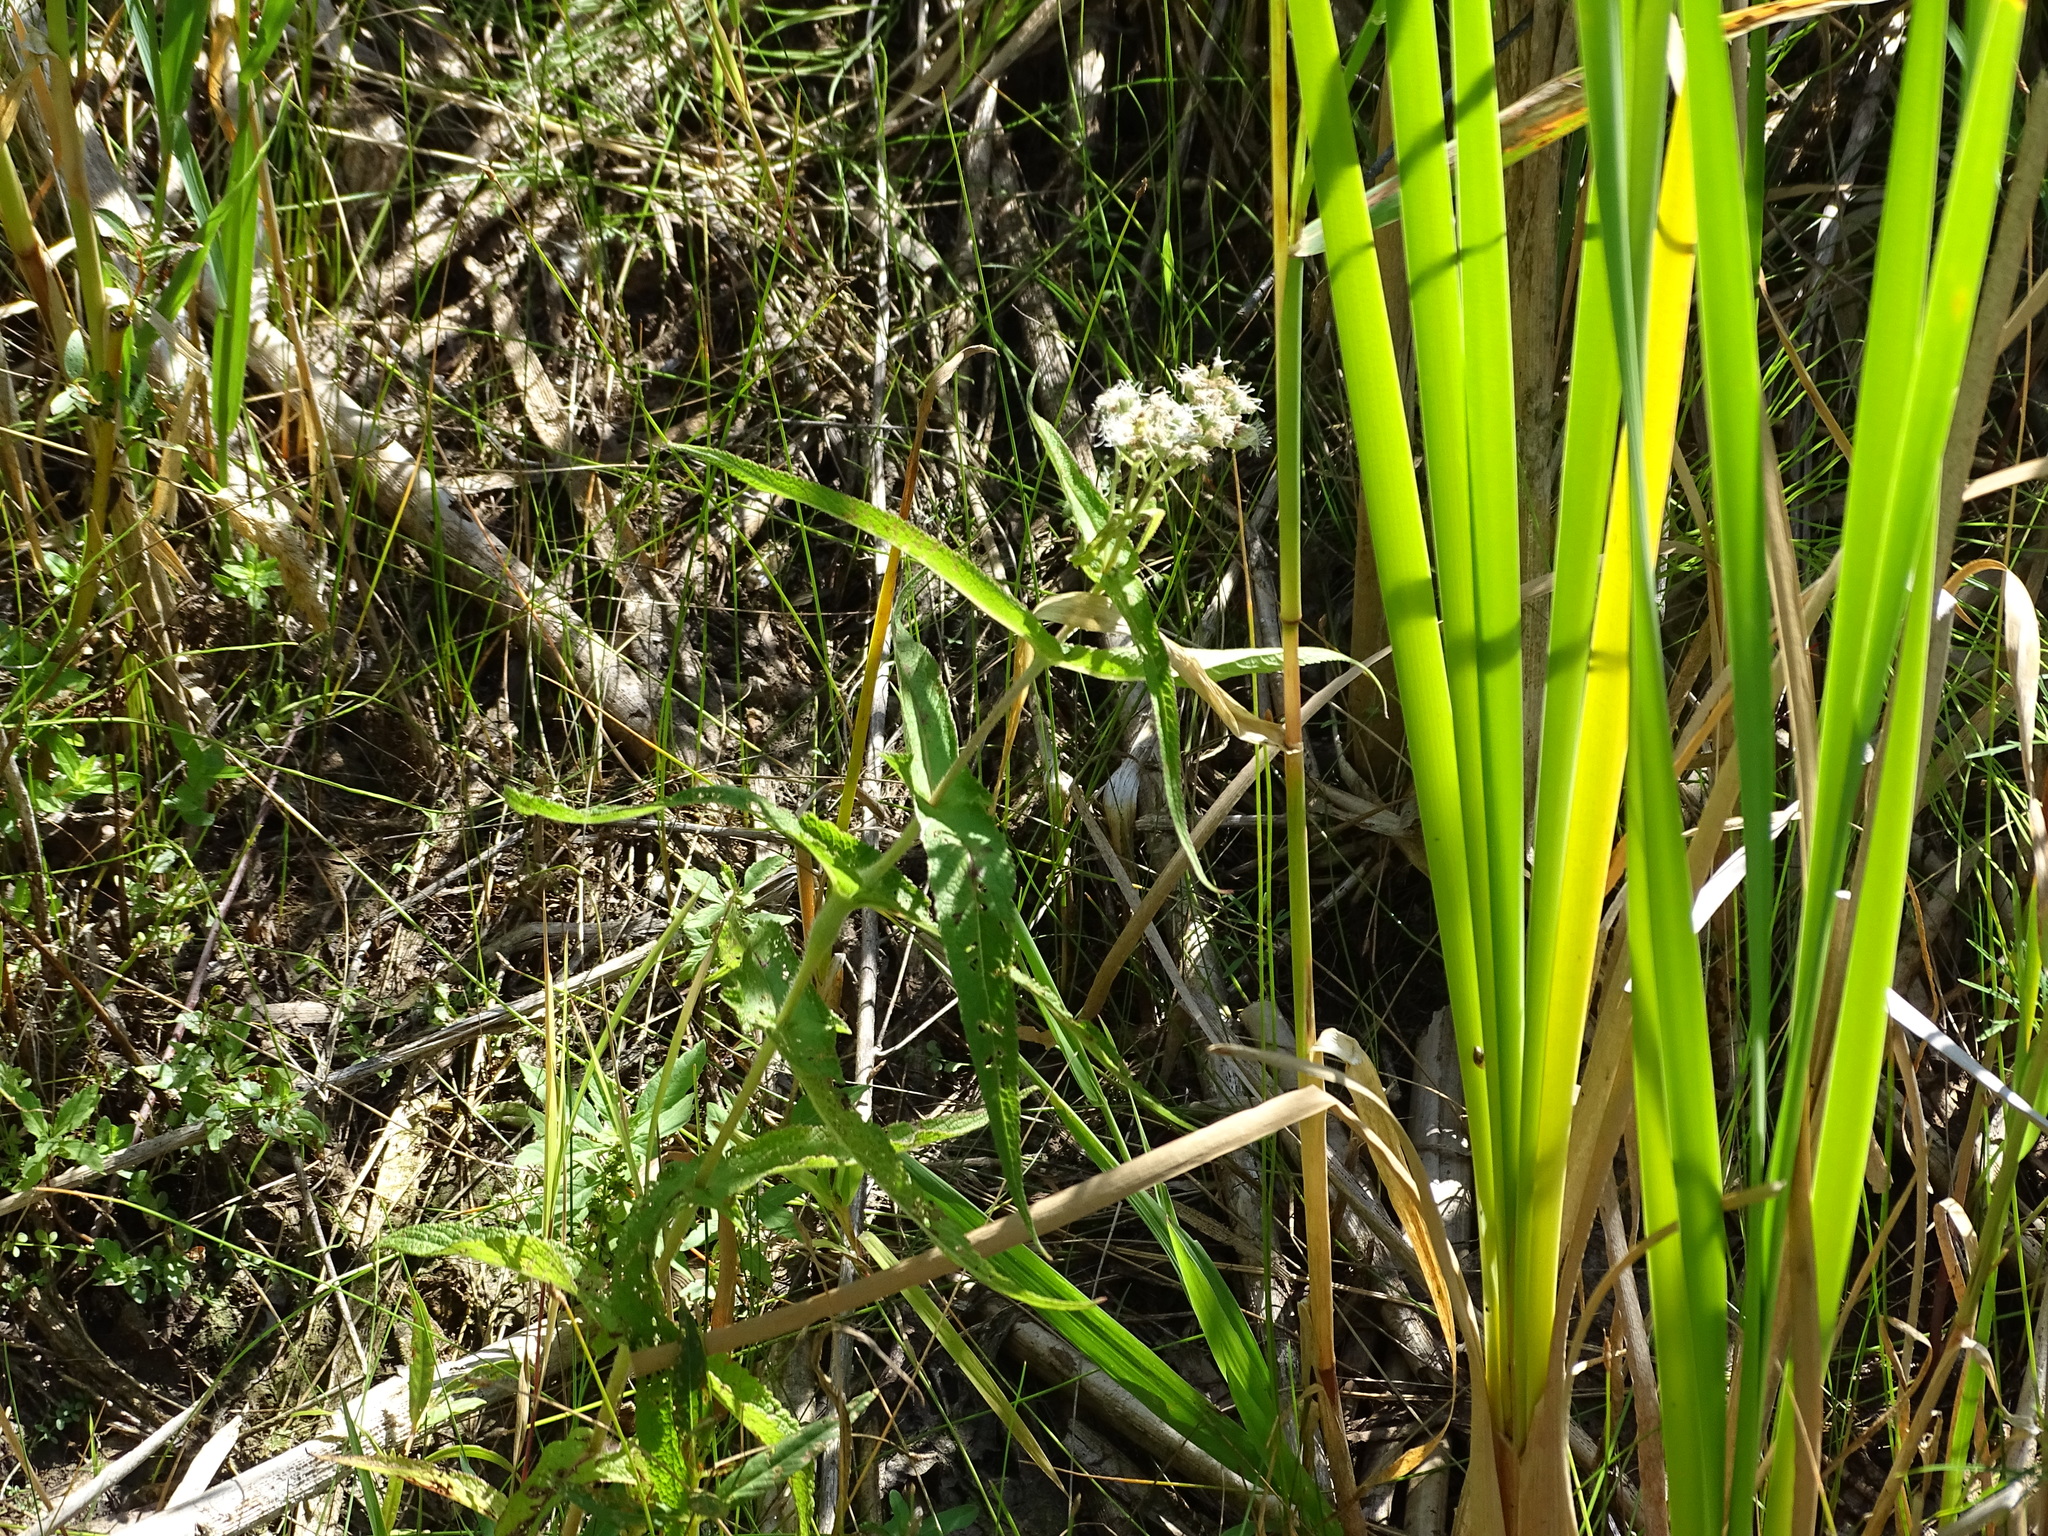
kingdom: Plantae
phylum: Tracheophyta
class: Magnoliopsida
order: Asterales
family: Asteraceae
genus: Eupatorium
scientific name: Eupatorium perfoliatum
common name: Boneset
